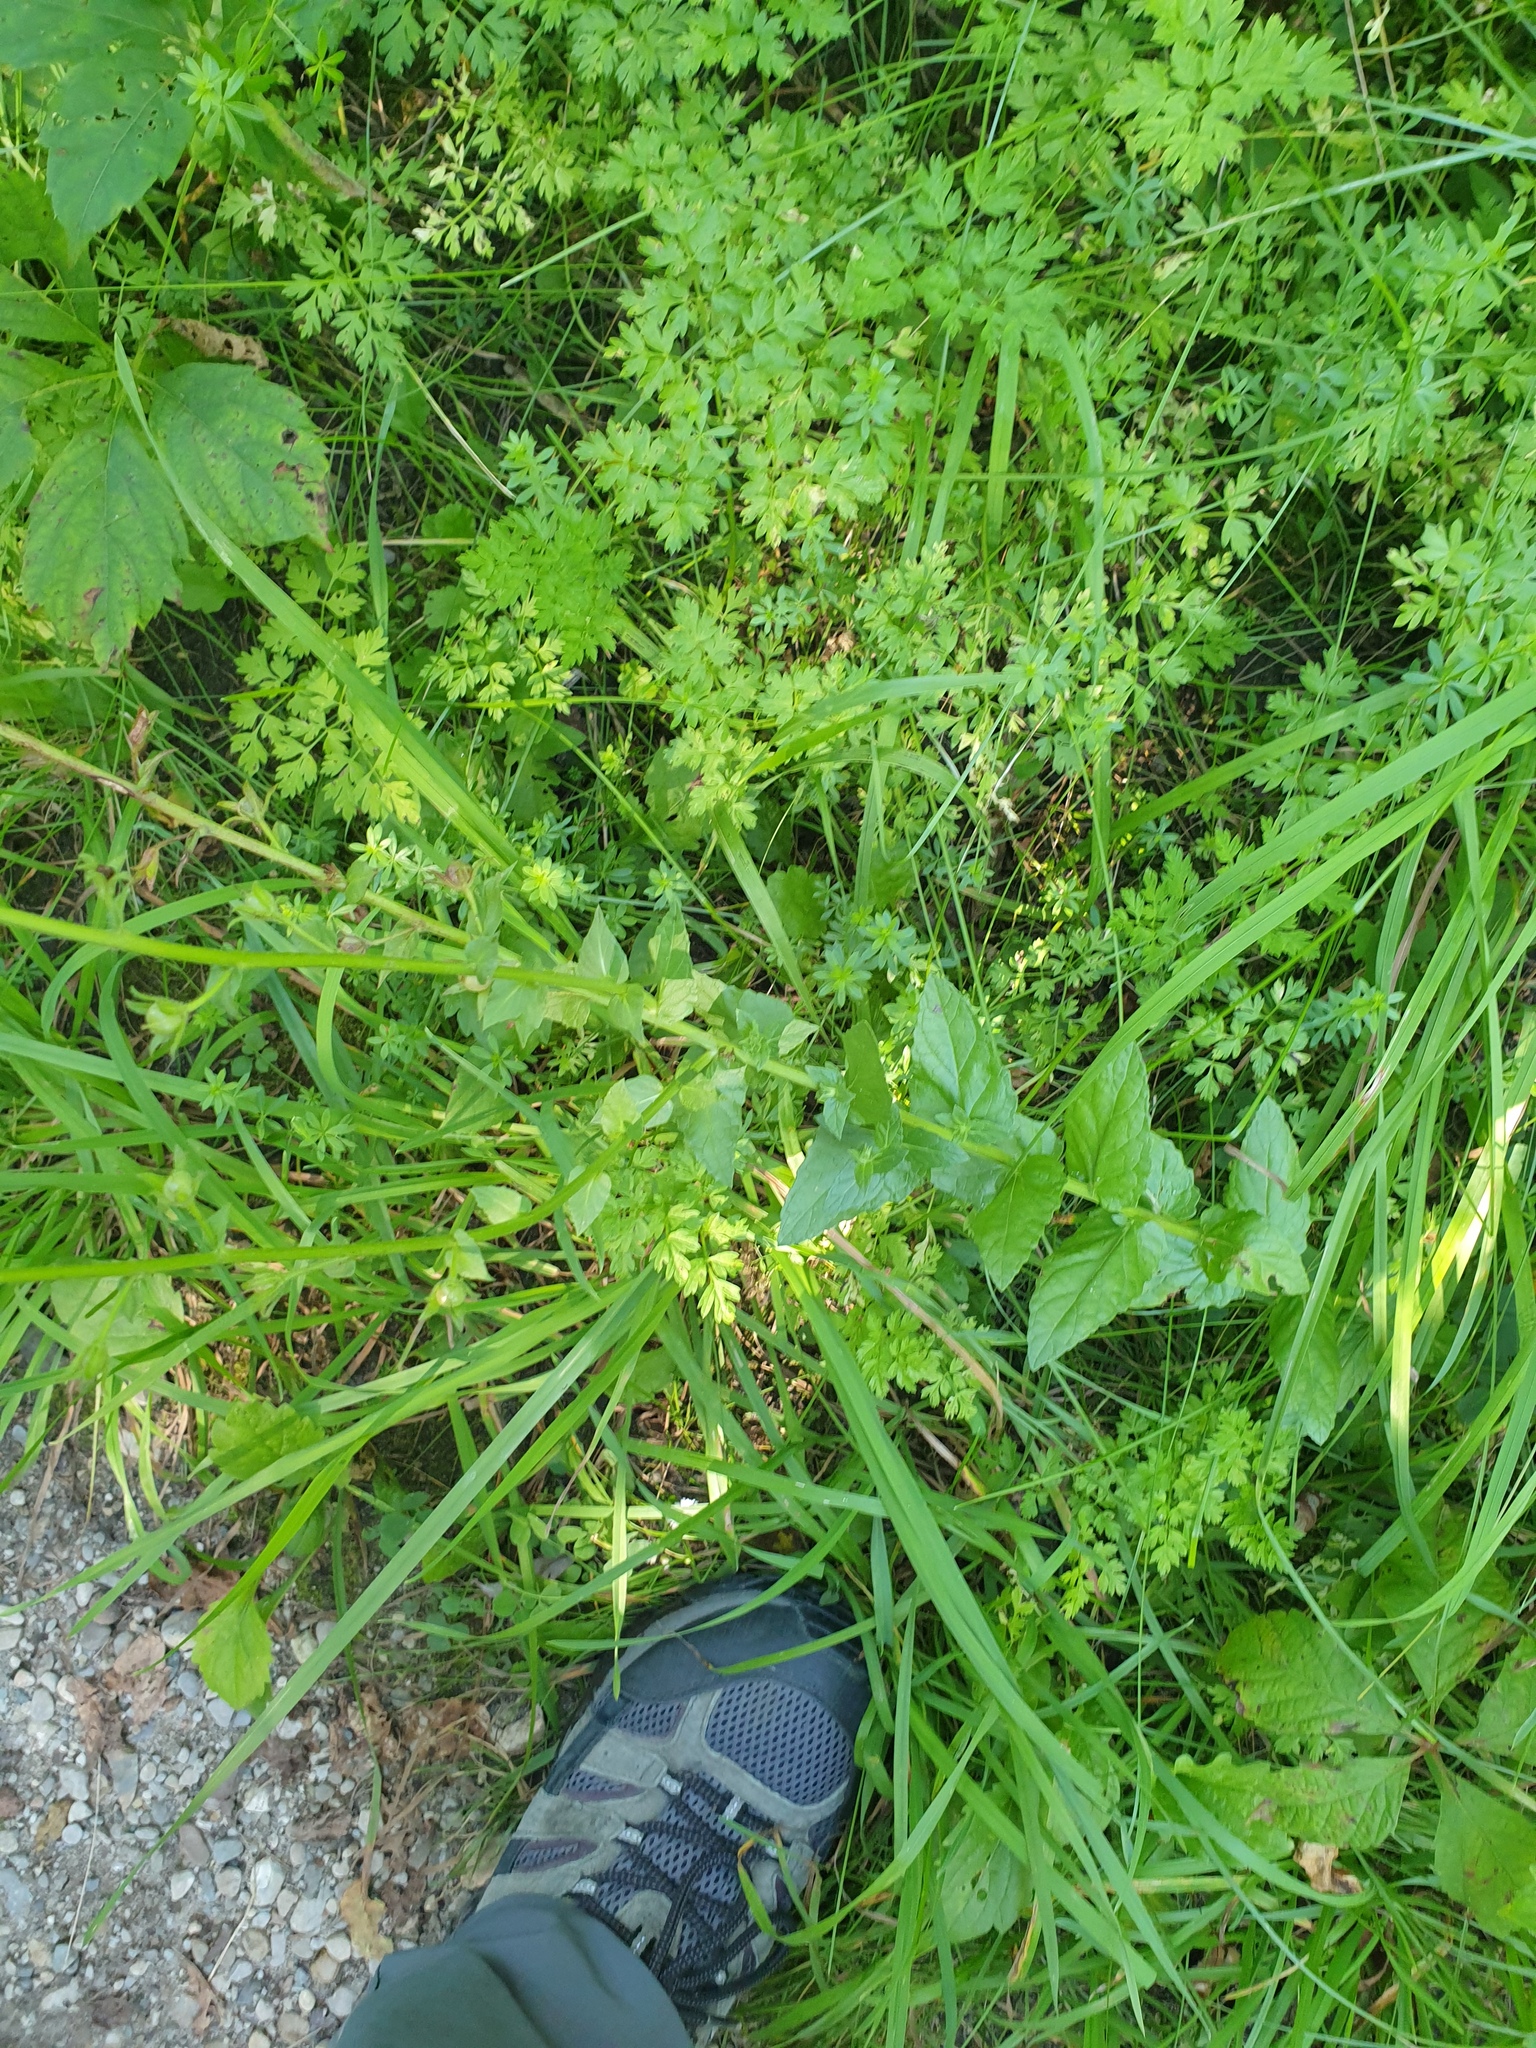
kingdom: Plantae
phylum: Tracheophyta
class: Magnoliopsida
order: Lamiales
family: Scrophulariaceae
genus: Verbascum
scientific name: Verbascum blattaria
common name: Moth mullein
